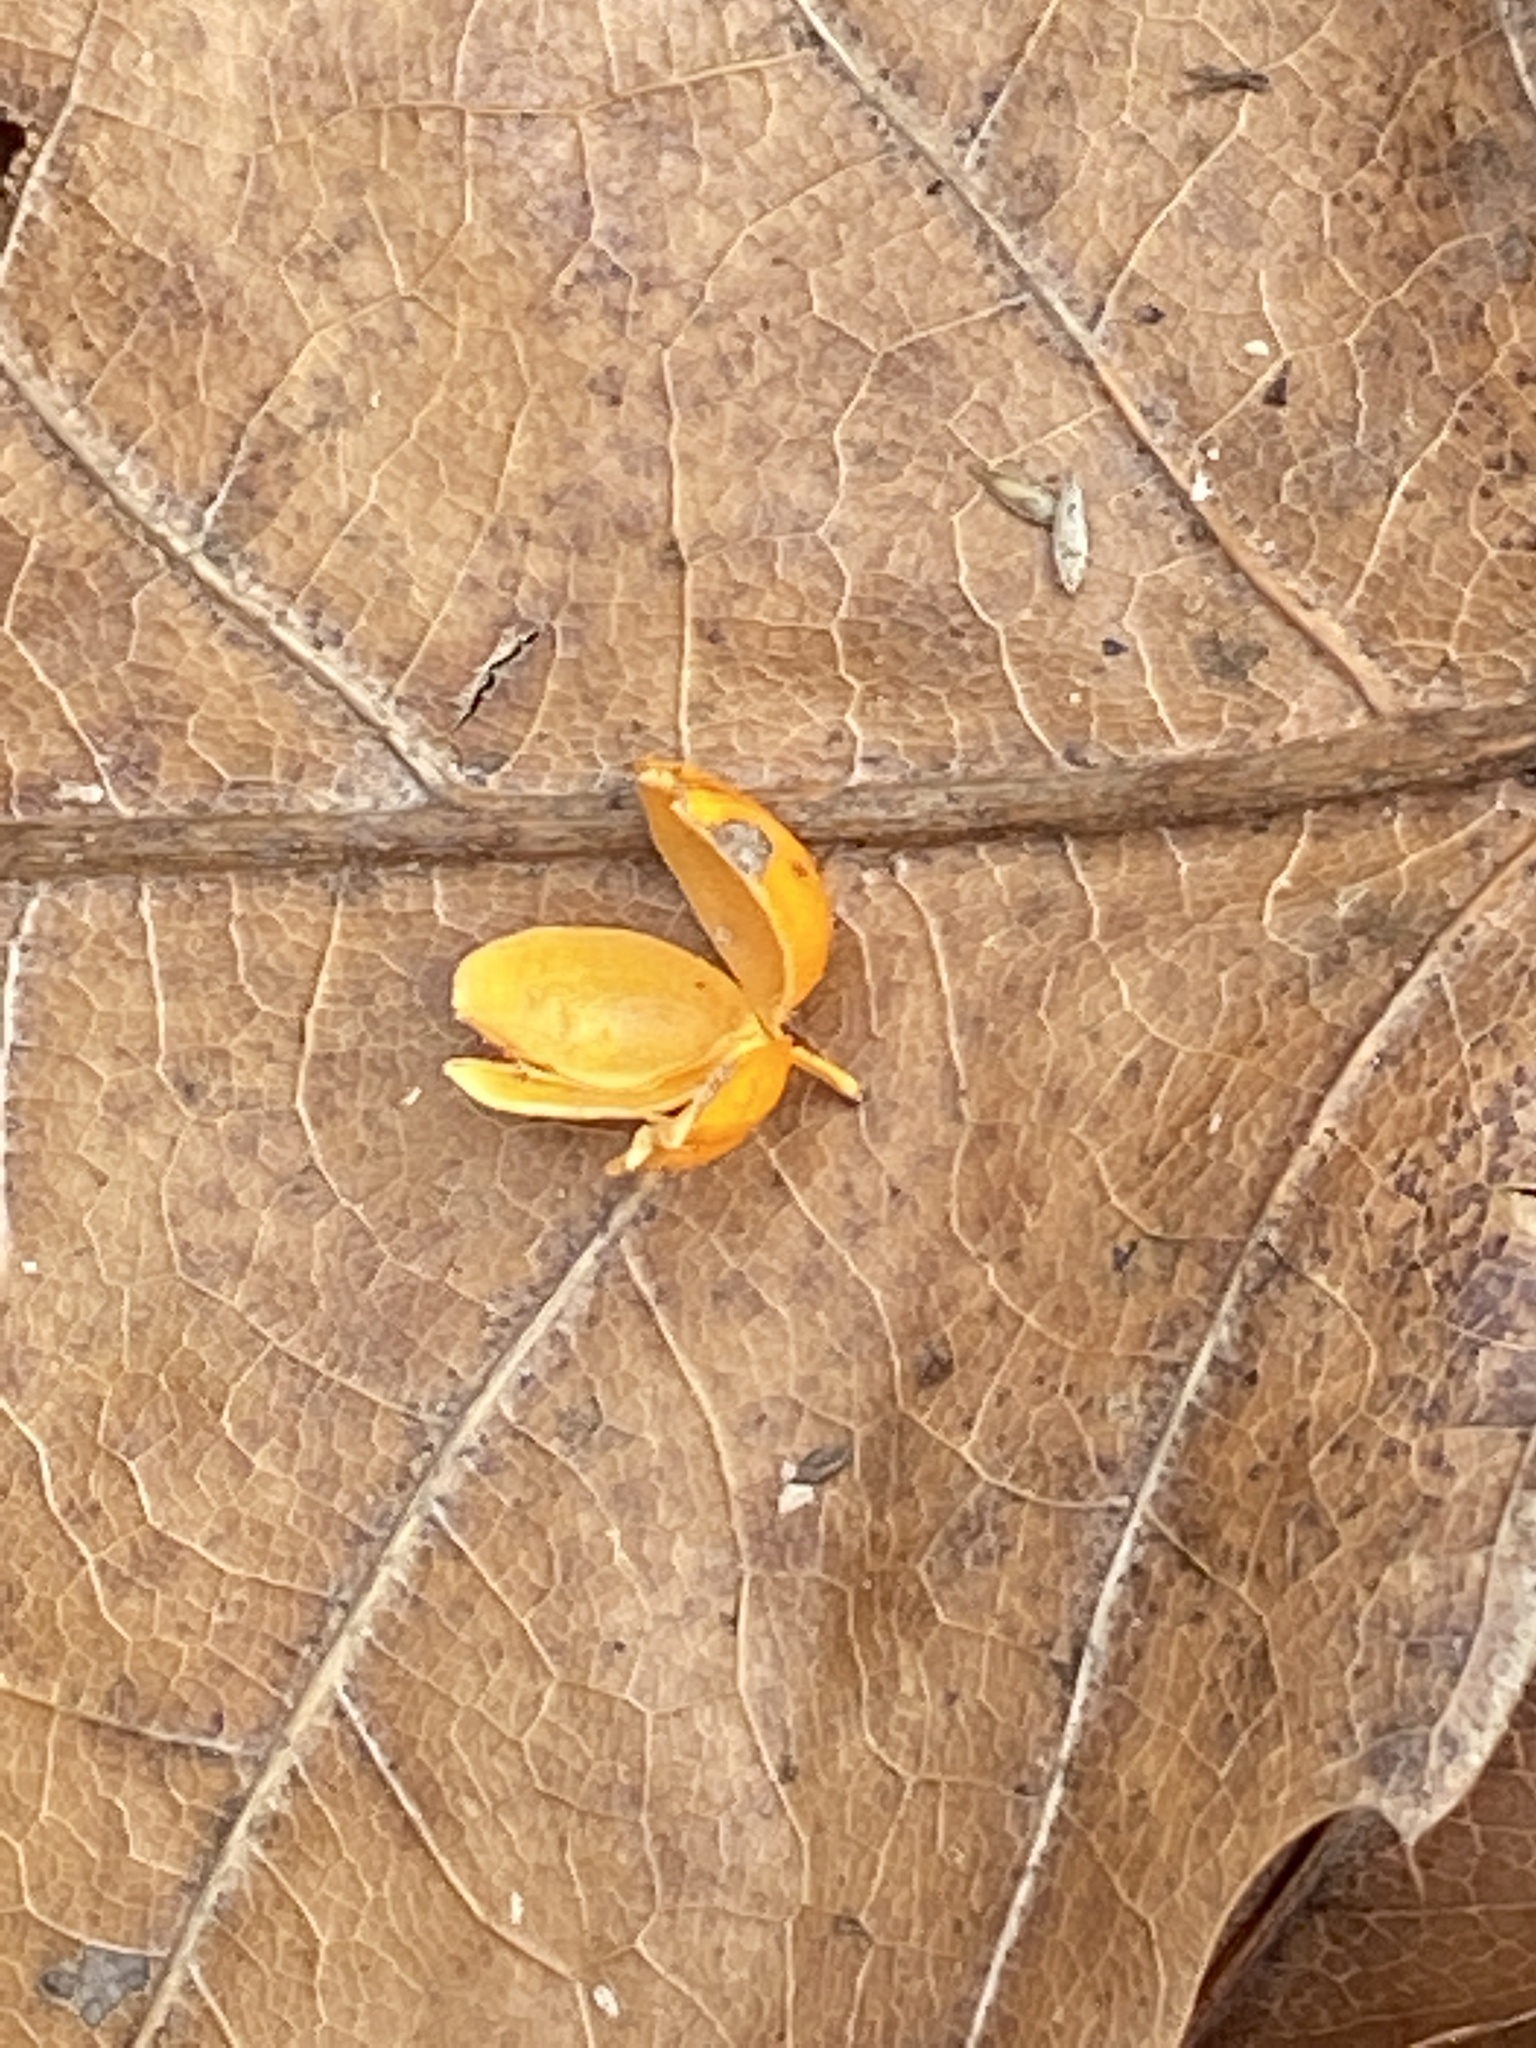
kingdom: Plantae
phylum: Tracheophyta
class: Magnoliopsida
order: Celastrales
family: Celastraceae
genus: Celastrus
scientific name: Celastrus orbiculatus
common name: Oriental bittersweet
